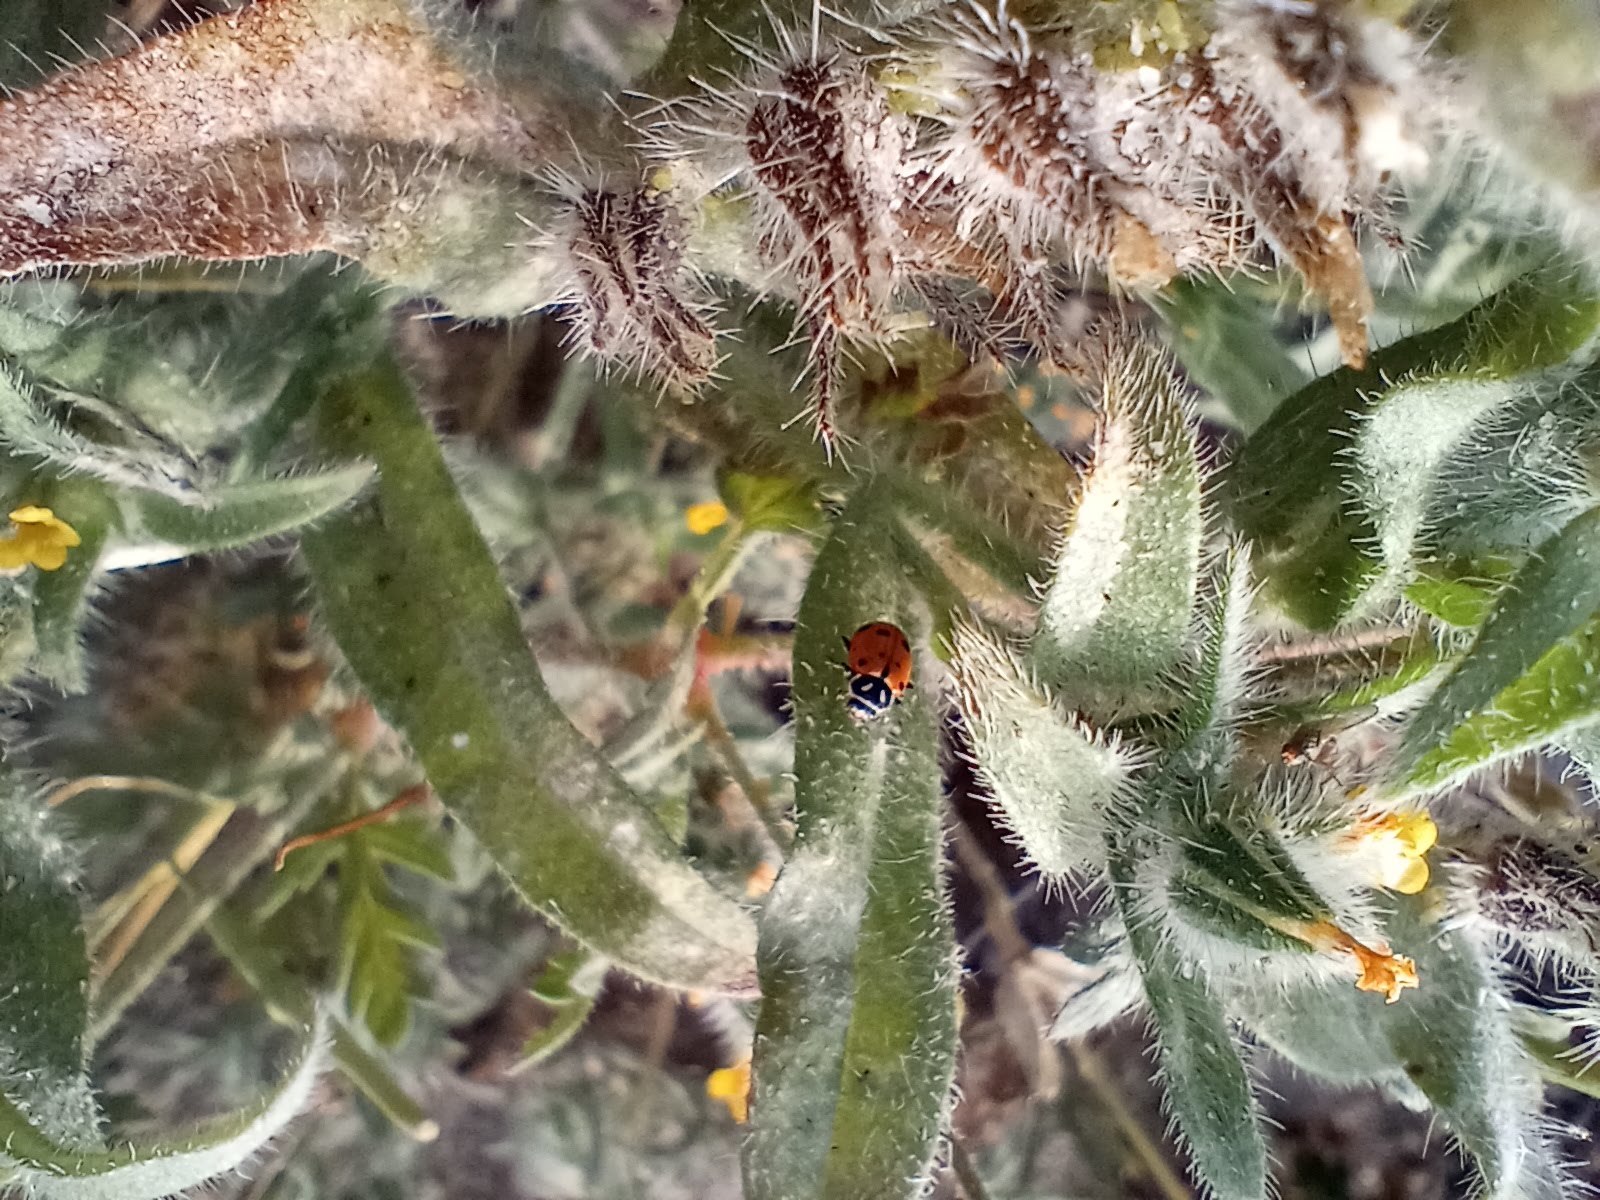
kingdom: Animalia
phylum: Arthropoda
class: Insecta
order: Coleoptera
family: Coccinellidae
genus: Hippodamia
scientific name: Hippodamia convergens
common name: Convergent lady beetle
